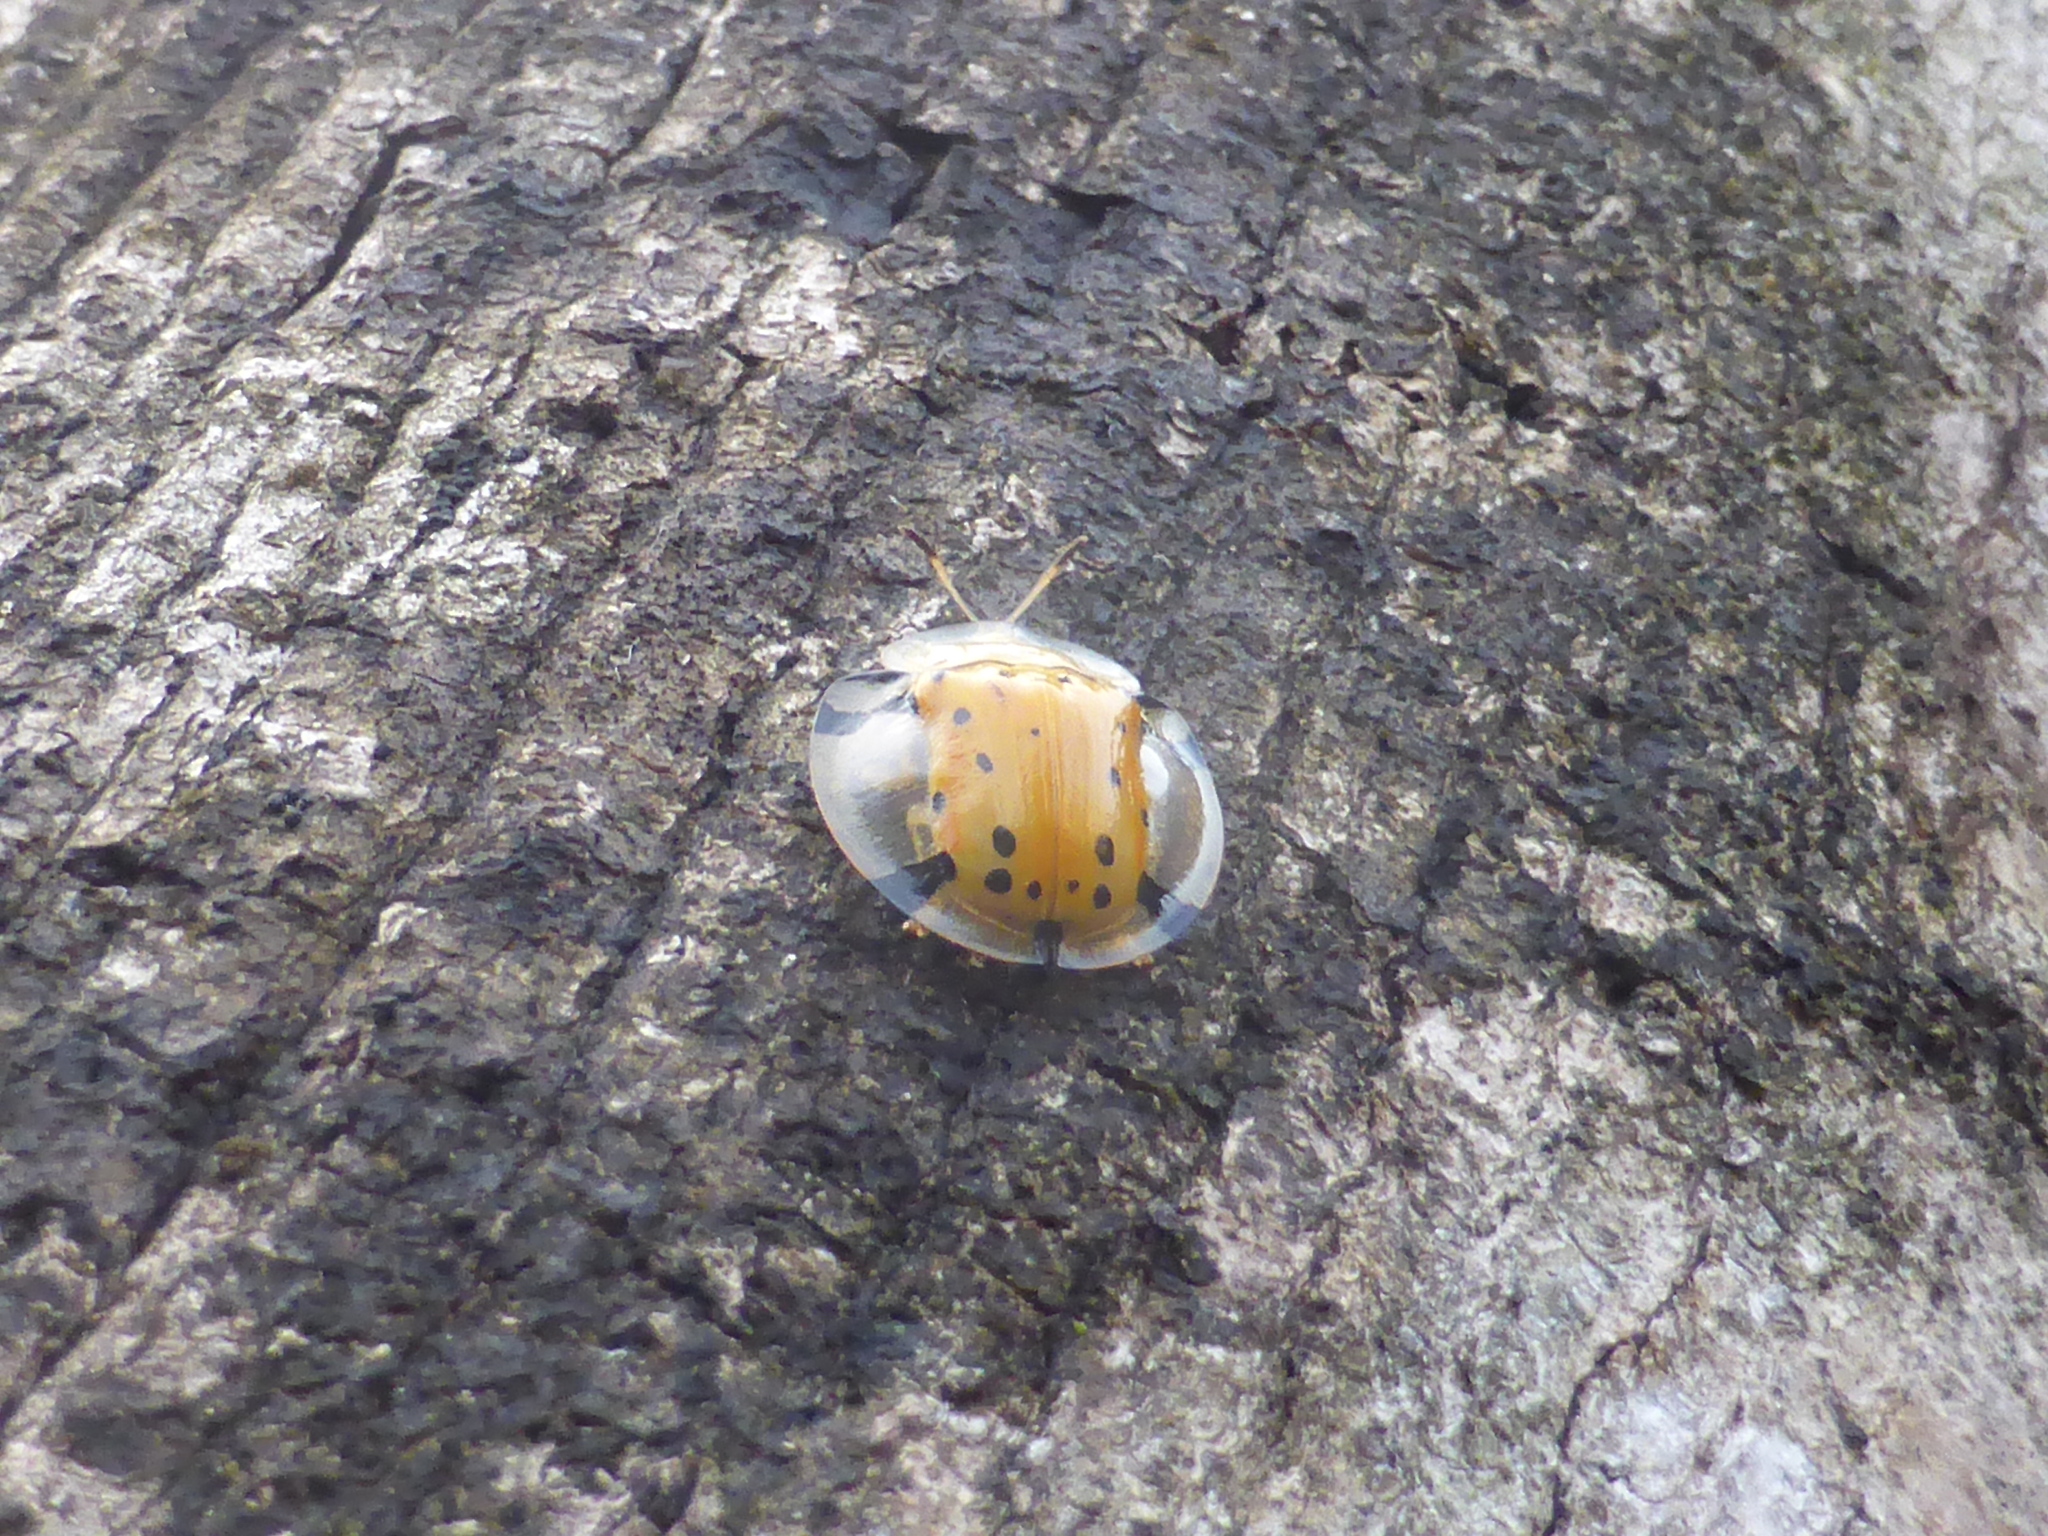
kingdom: Animalia
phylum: Arthropoda
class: Insecta
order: Coleoptera
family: Chrysomelidae
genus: Aspidimorpha
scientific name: Aspidimorpha miliaris
